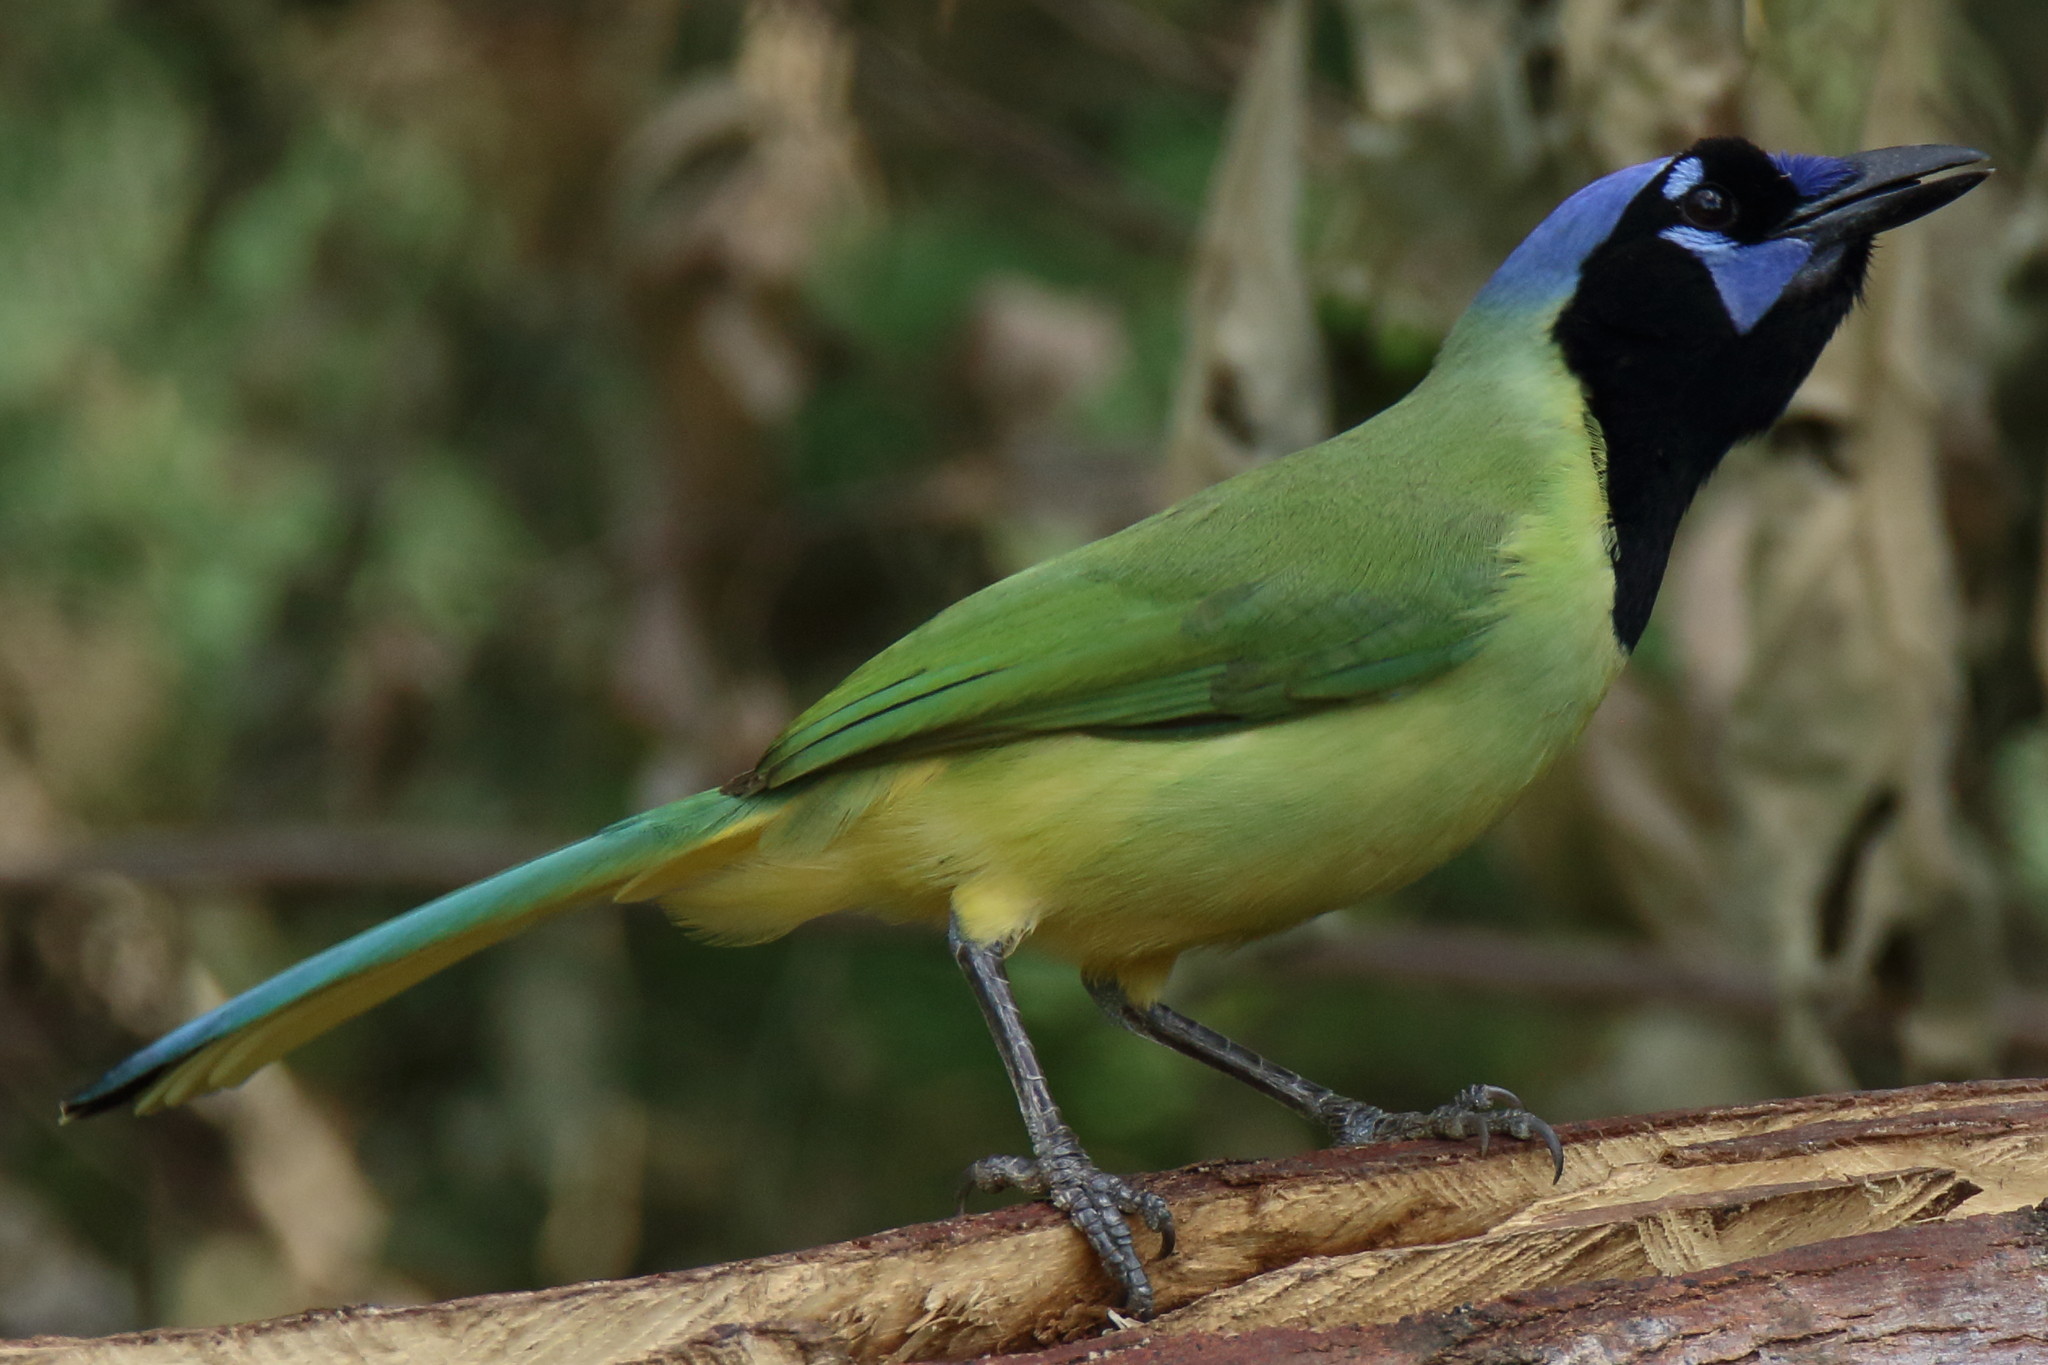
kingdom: Animalia
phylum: Chordata
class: Aves
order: Passeriformes
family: Corvidae
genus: Cyanocorax
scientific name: Cyanocorax yncas
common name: Green jay
